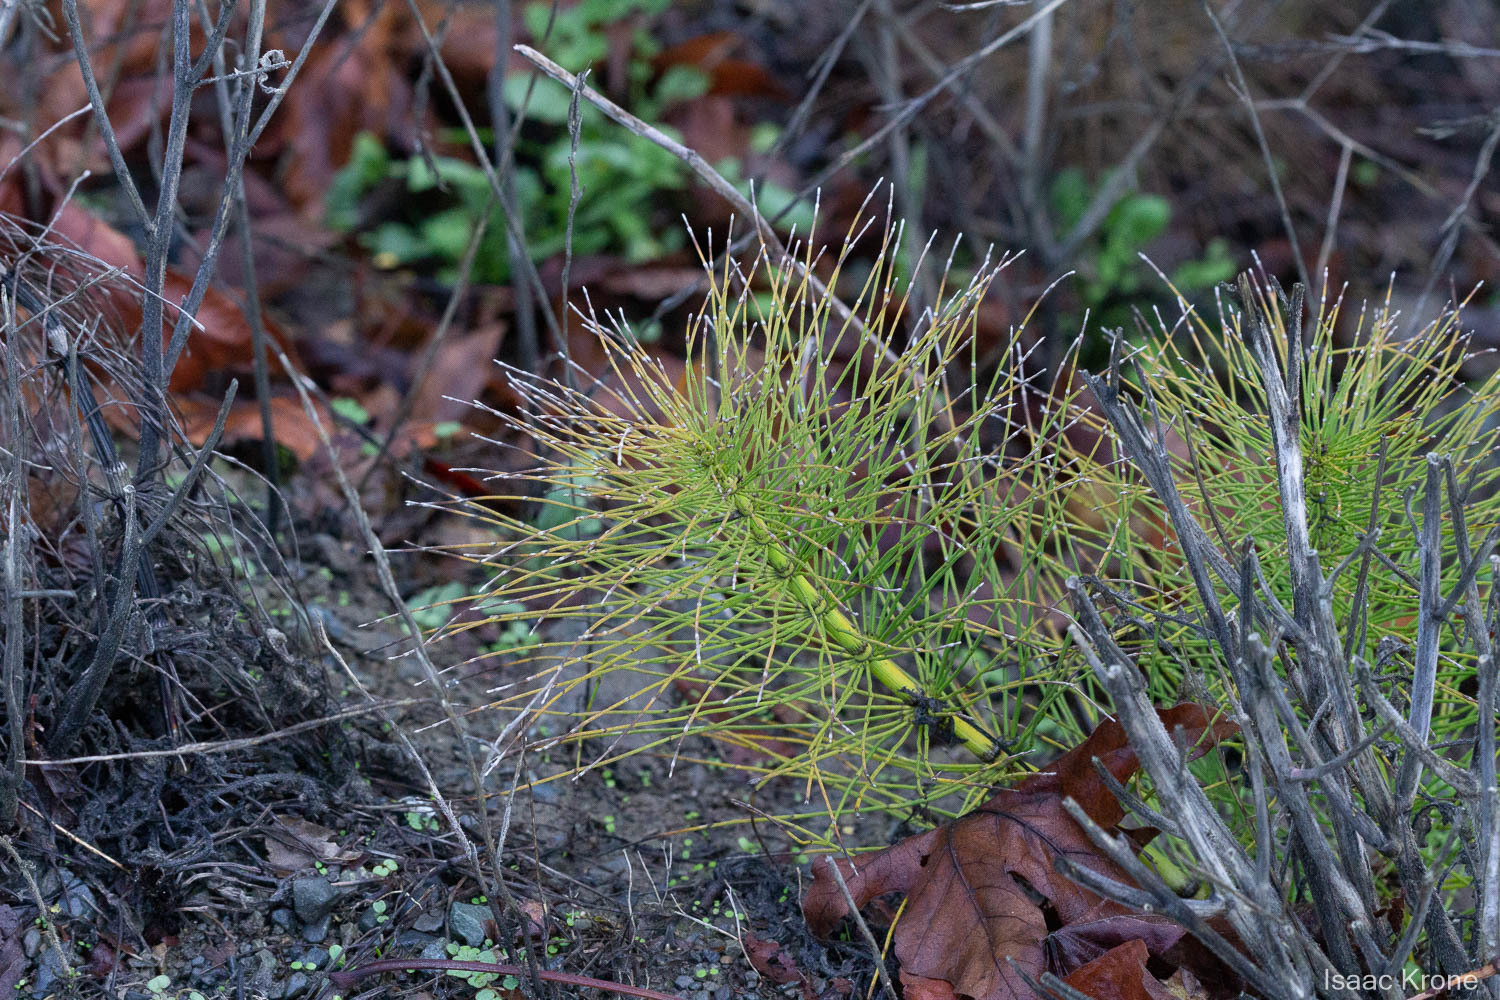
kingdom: Plantae
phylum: Tracheophyta
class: Polypodiopsida
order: Equisetales
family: Equisetaceae
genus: Equisetum
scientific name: Equisetum braunii
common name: Braun's horsetail
